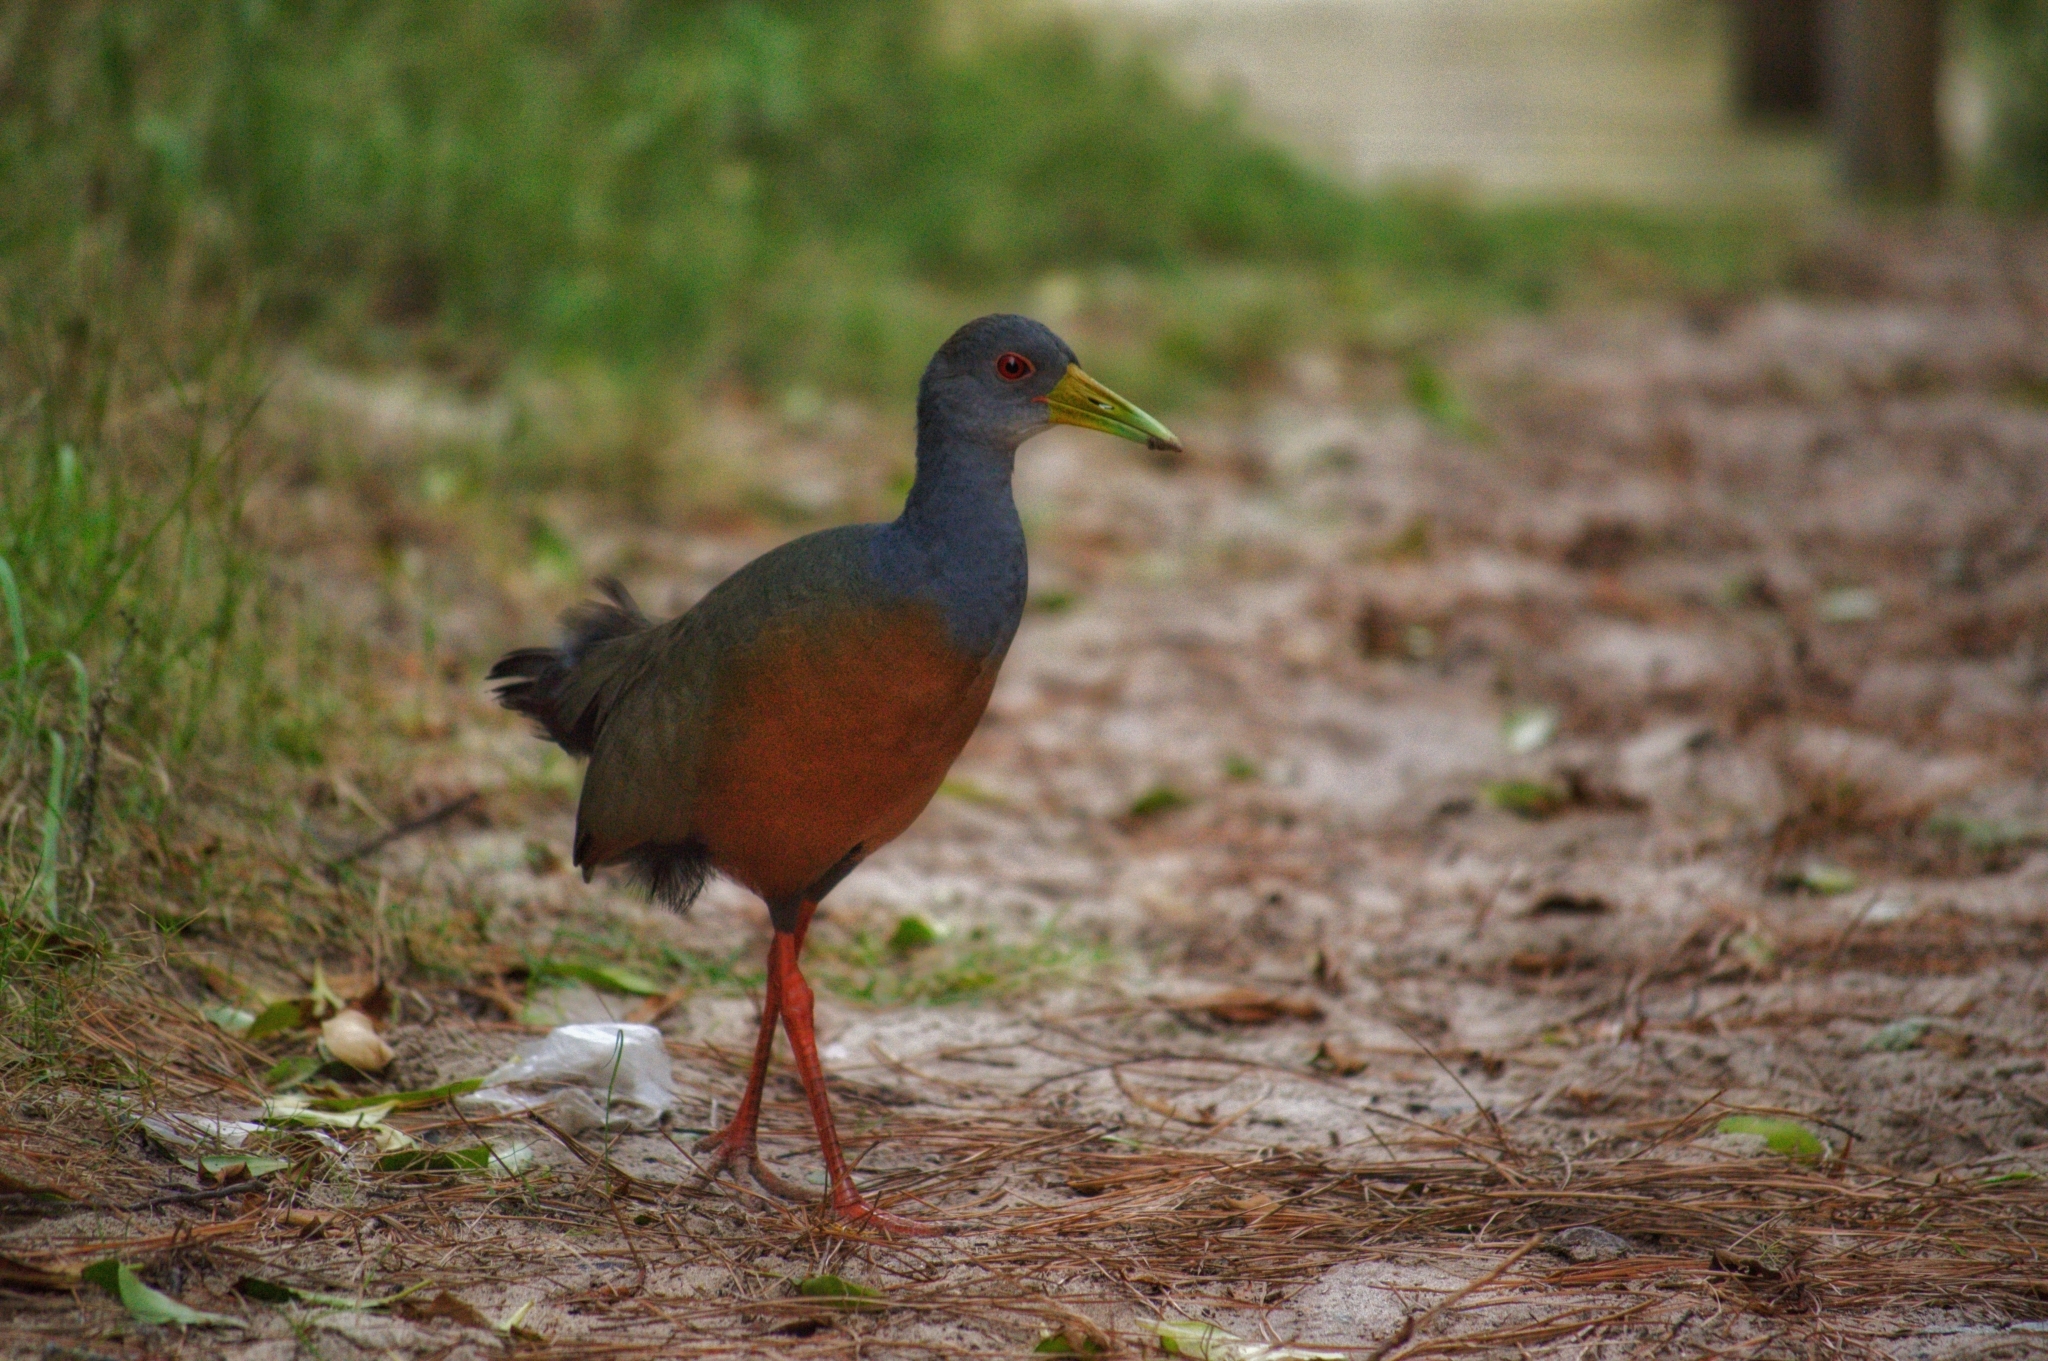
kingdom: Animalia
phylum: Chordata
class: Aves
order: Gruiformes
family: Rallidae
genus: Aramides
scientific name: Aramides cajanea
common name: Gray-necked wood-rail
